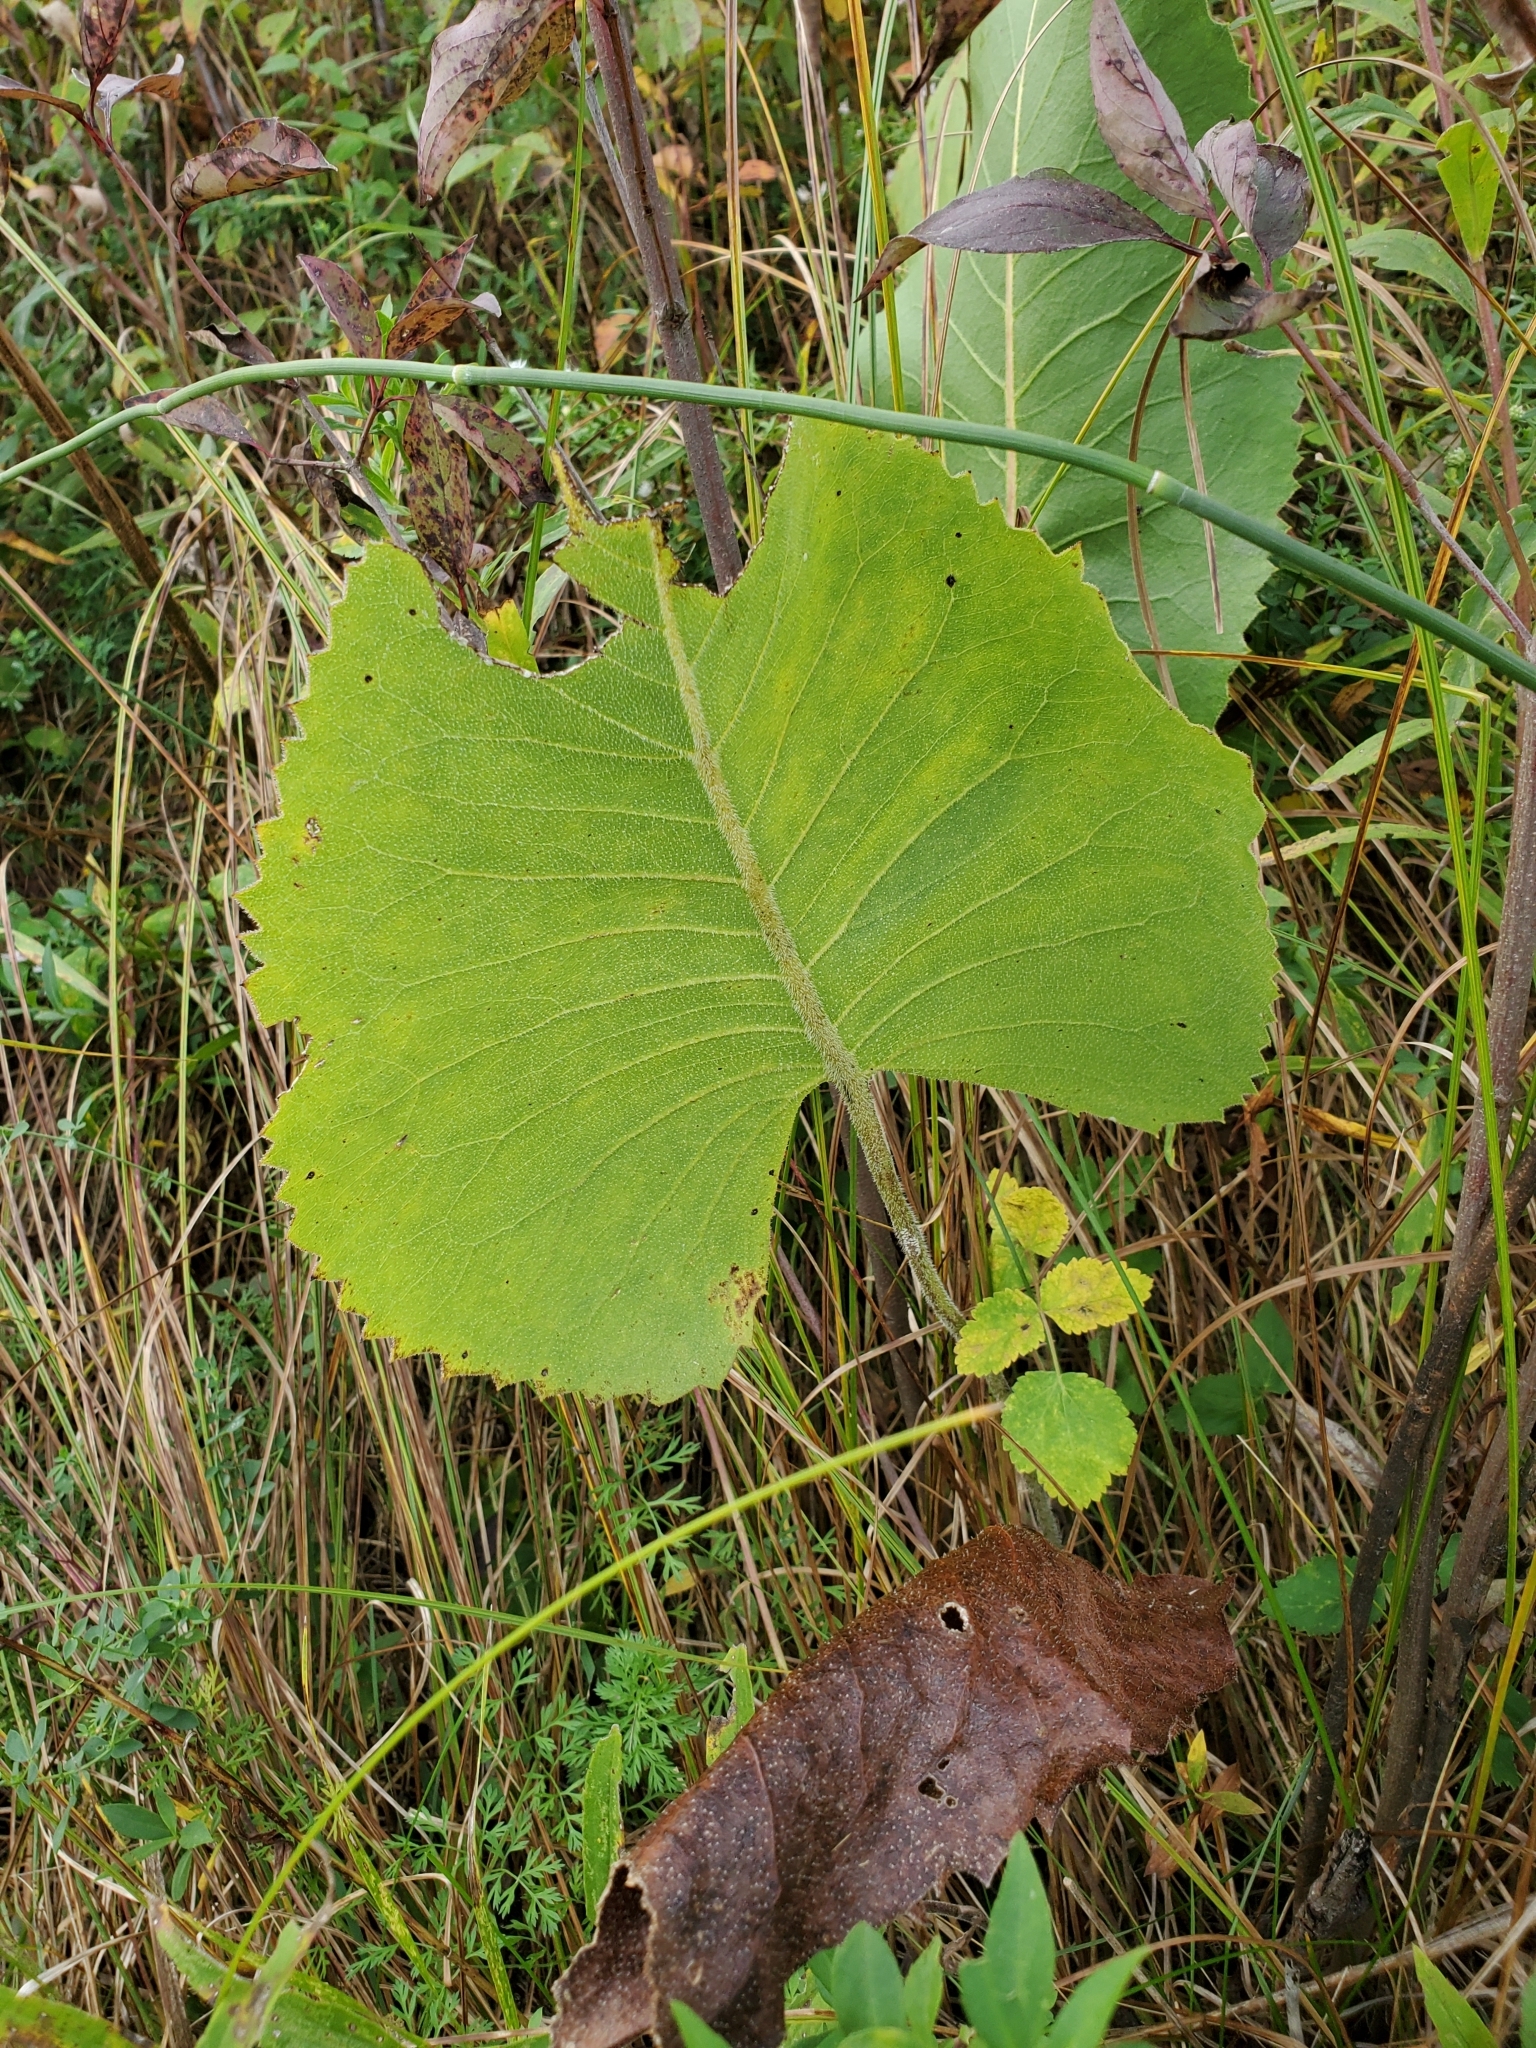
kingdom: Plantae
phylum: Tracheophyta
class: Magnoliopsida
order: Asterales
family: Asteraceae
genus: Silphium
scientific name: Silphium terebinthinaceum
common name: Basal-leaf rosinweed
